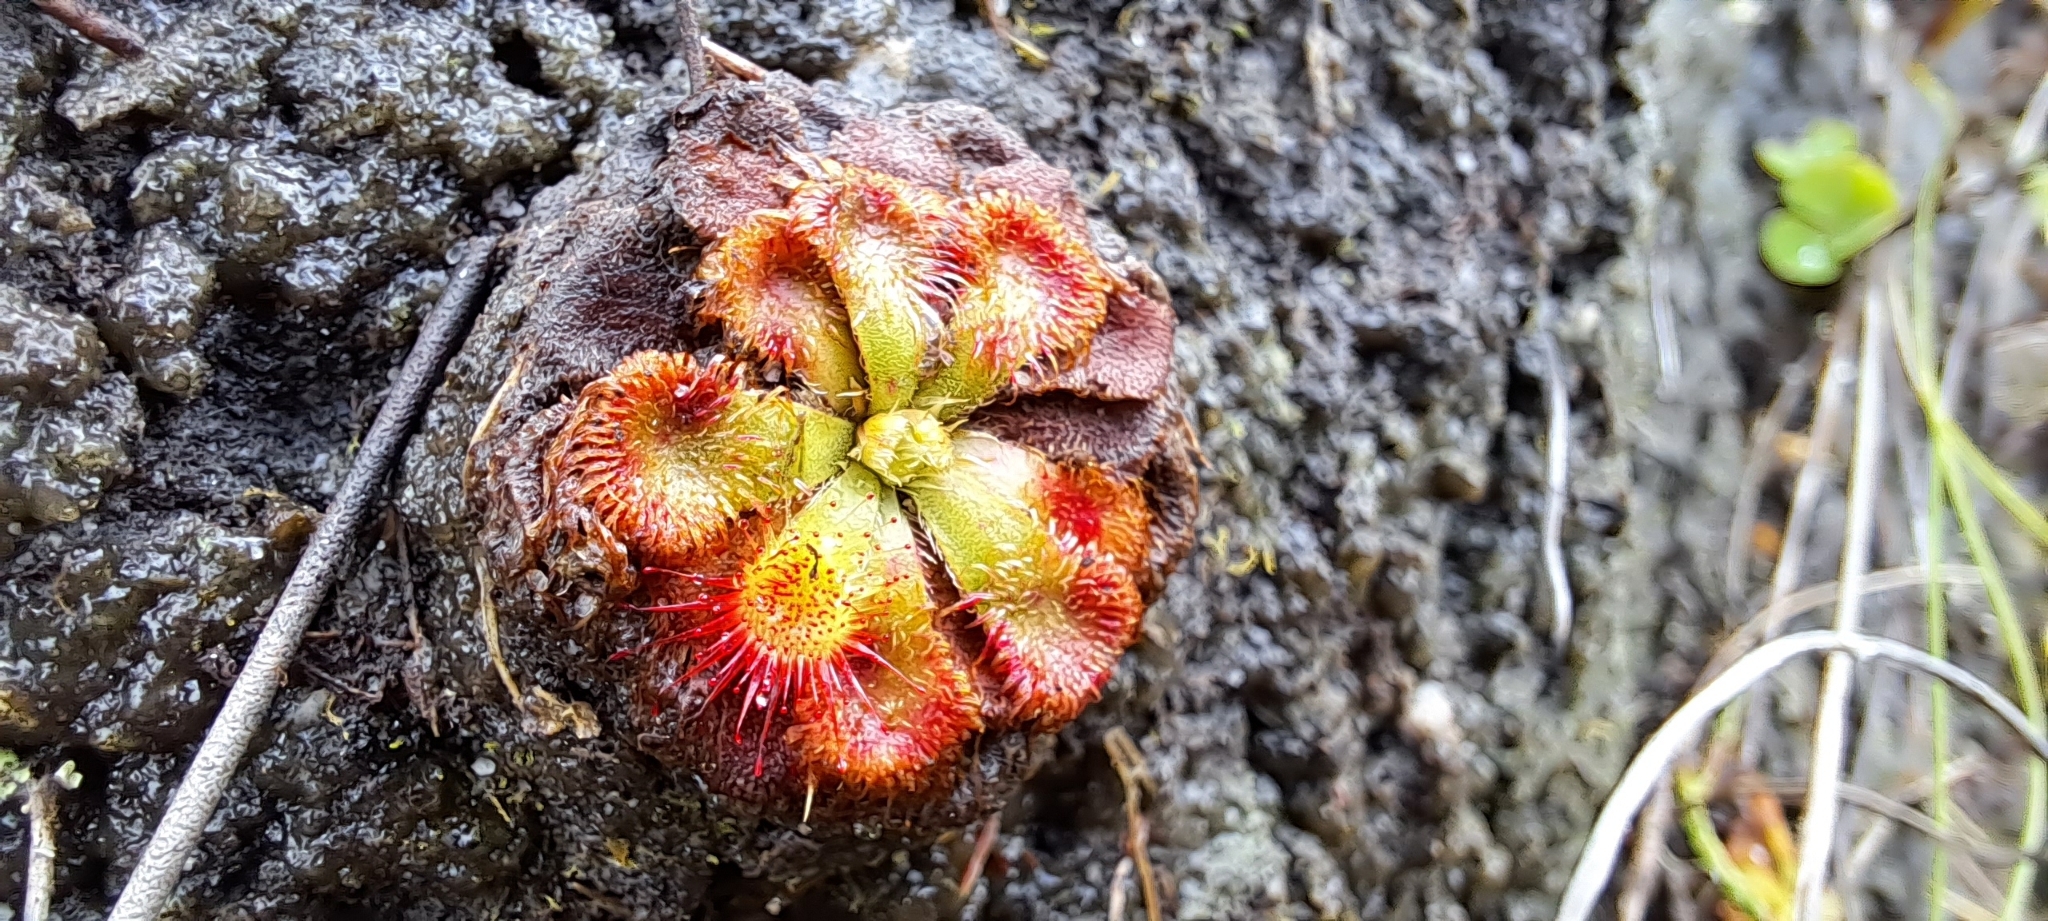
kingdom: Plantae
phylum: Tracheophyta
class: Magnoliopsida
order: Caryophyllales
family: Droseraceae
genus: Drosera
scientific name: Drosera xerophila
